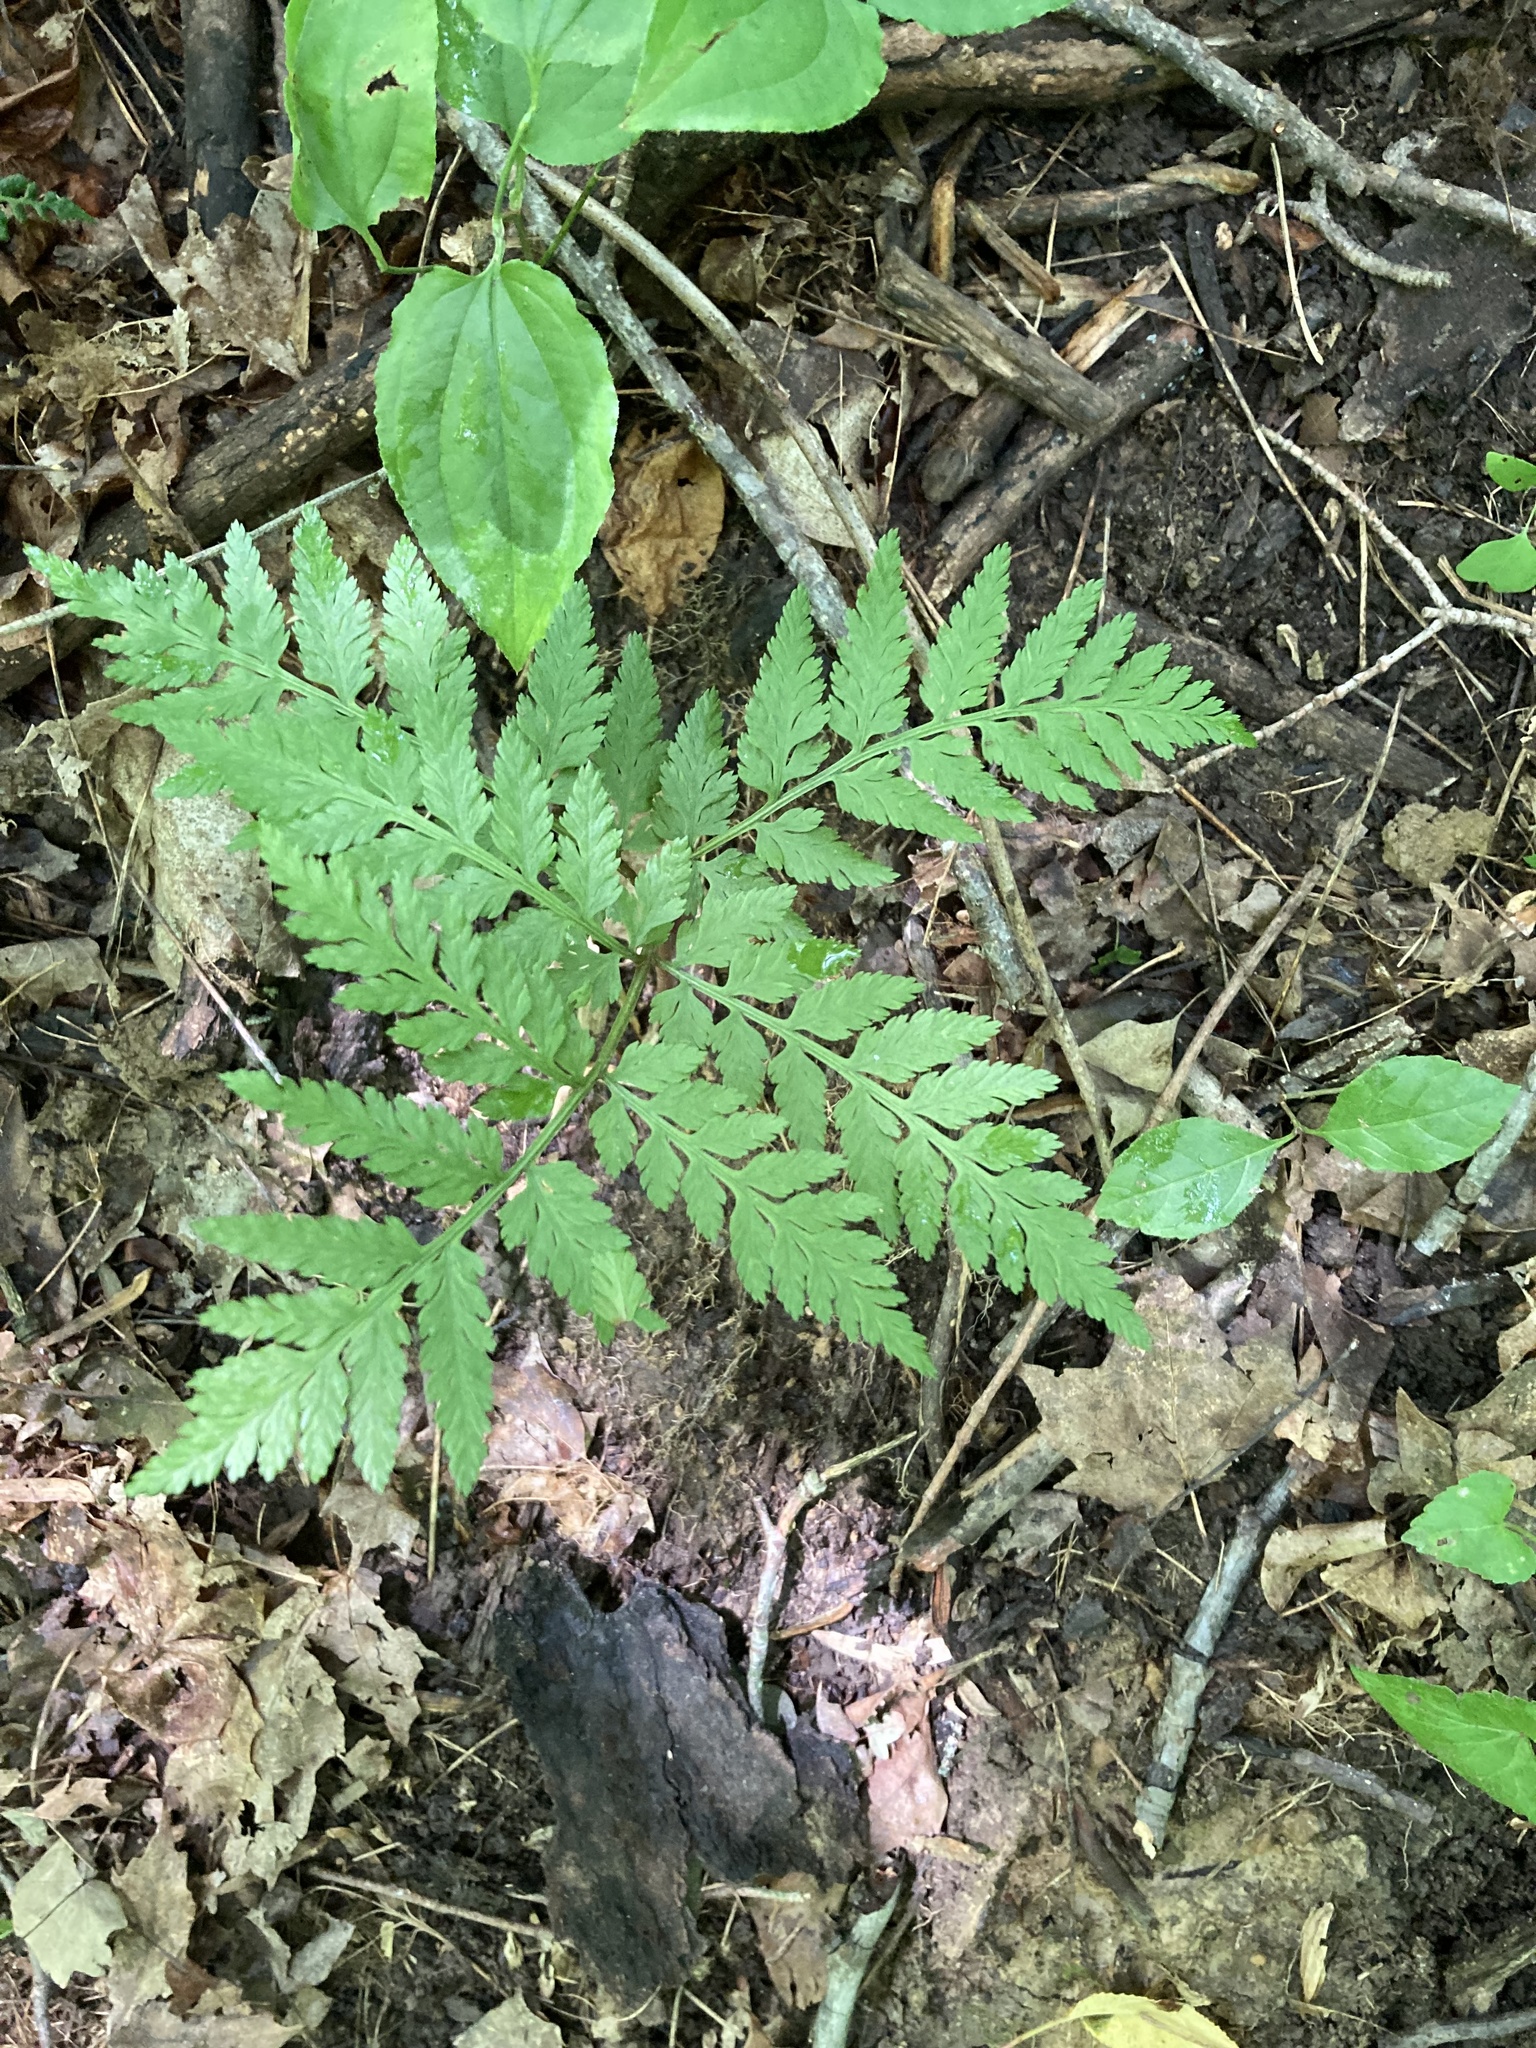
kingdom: Plantae
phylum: Tracheophyta
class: Polypodiopsida
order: Ophioglossales
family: Ophioglossaceae
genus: Botrypus
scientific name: Botrypus virginianus
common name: Common grapefern
